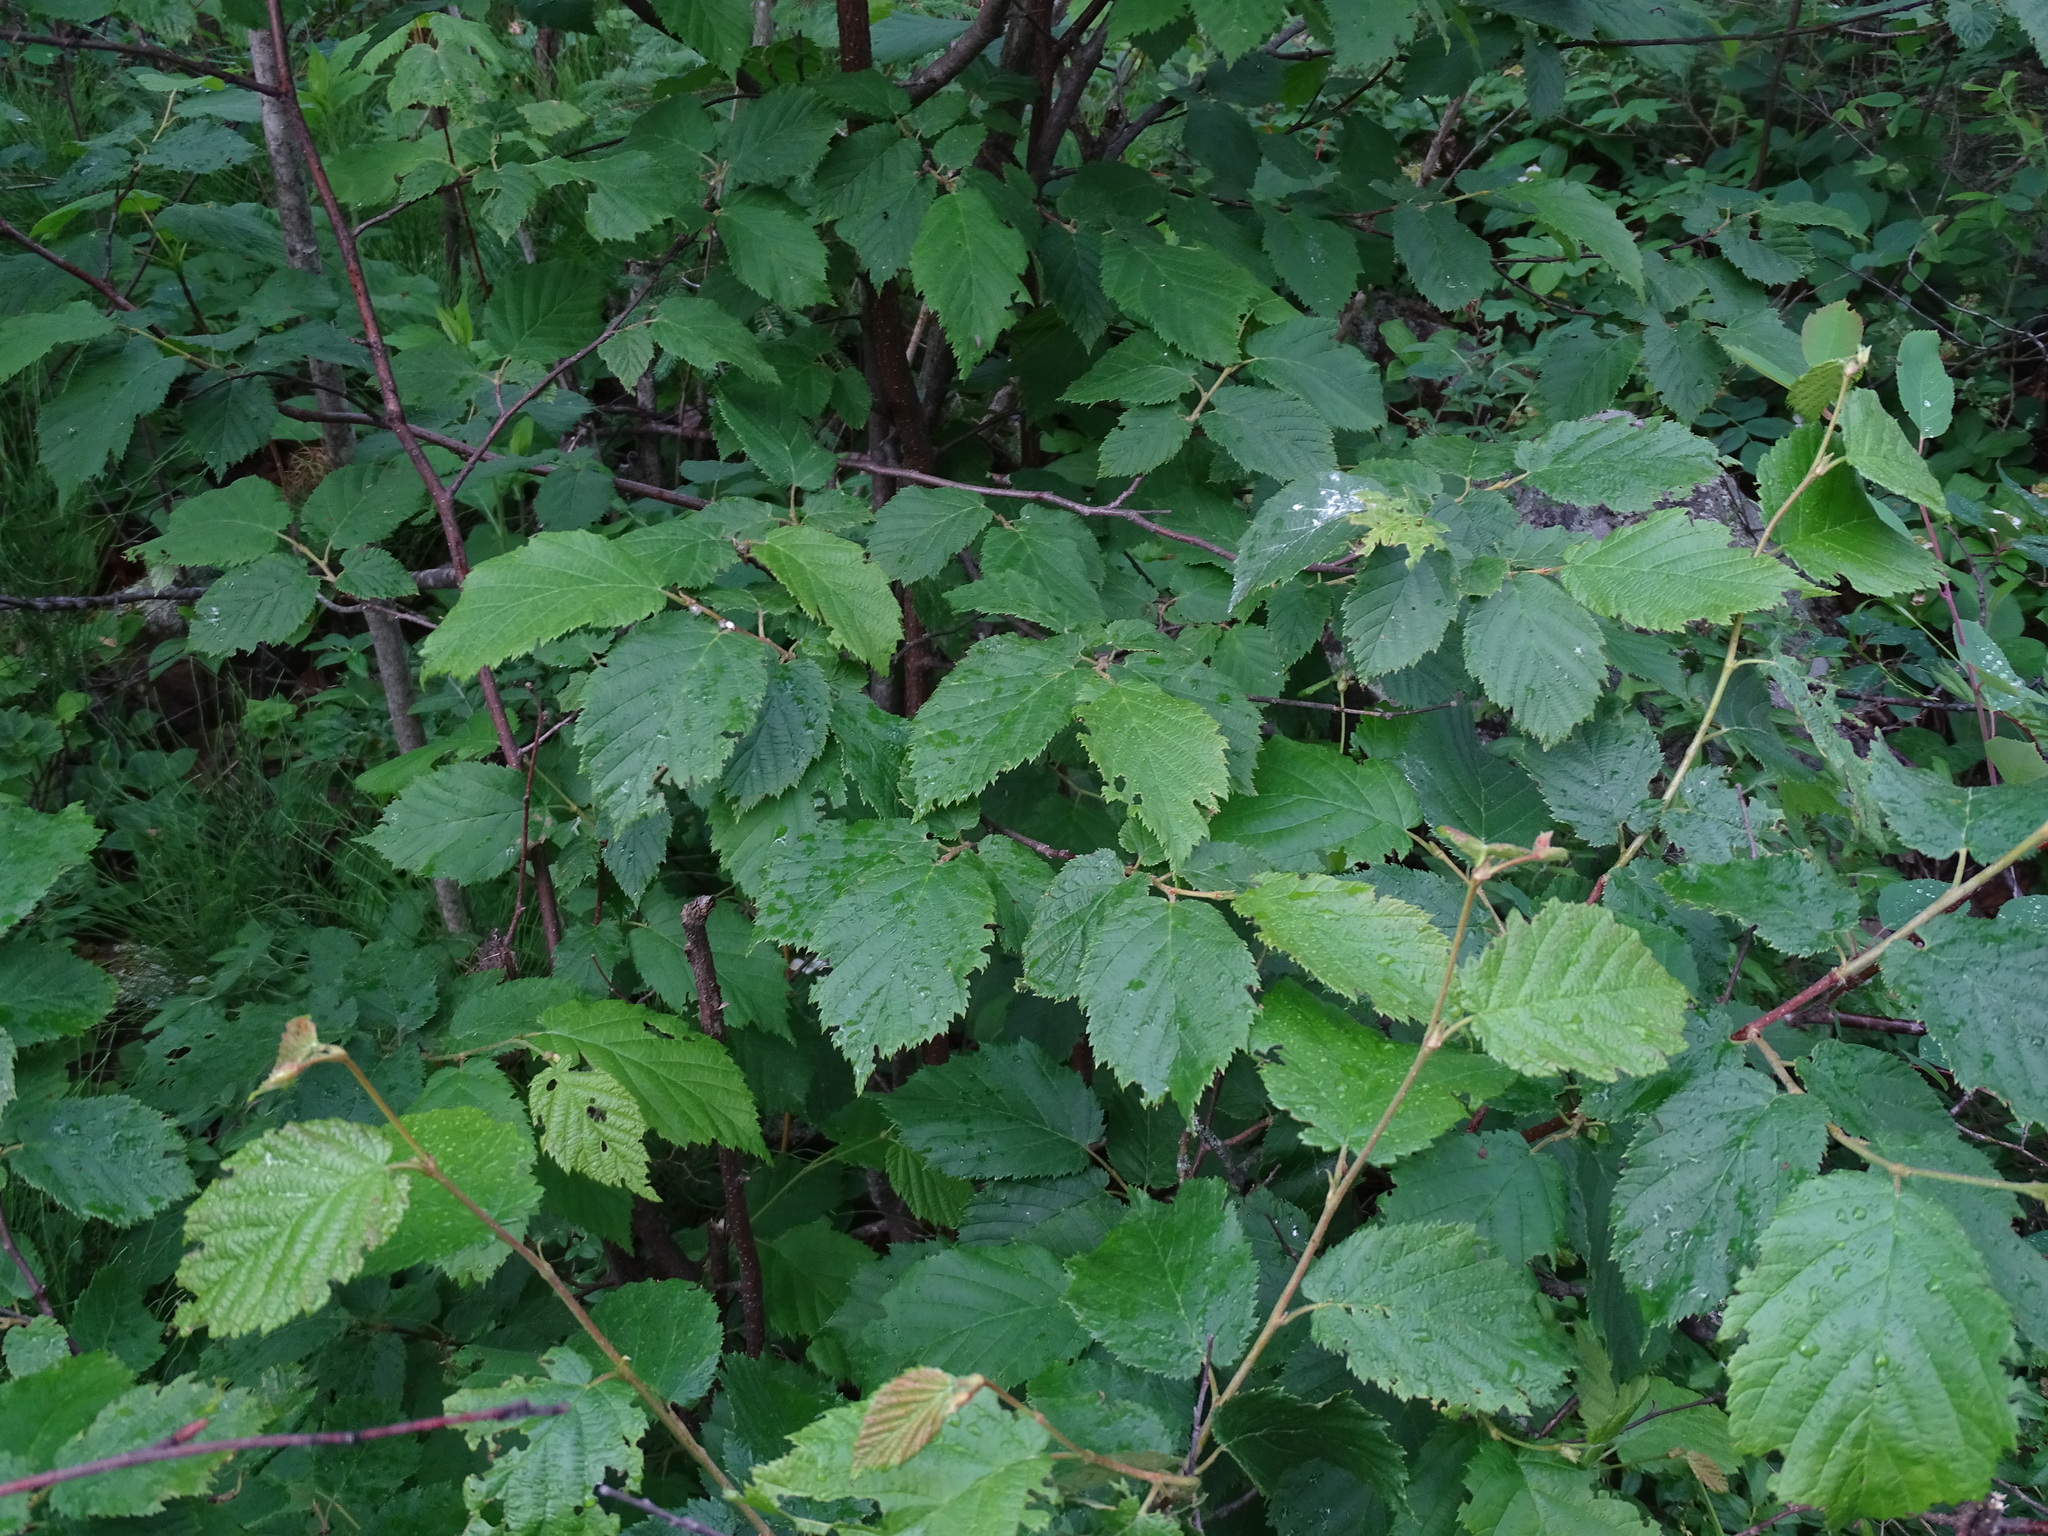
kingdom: Plantae
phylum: Tracheophyta
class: Magnoliopsida
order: Fagales
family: Betulaceae
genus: Corylus
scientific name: Corylus cornuta
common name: Beaked hazel
